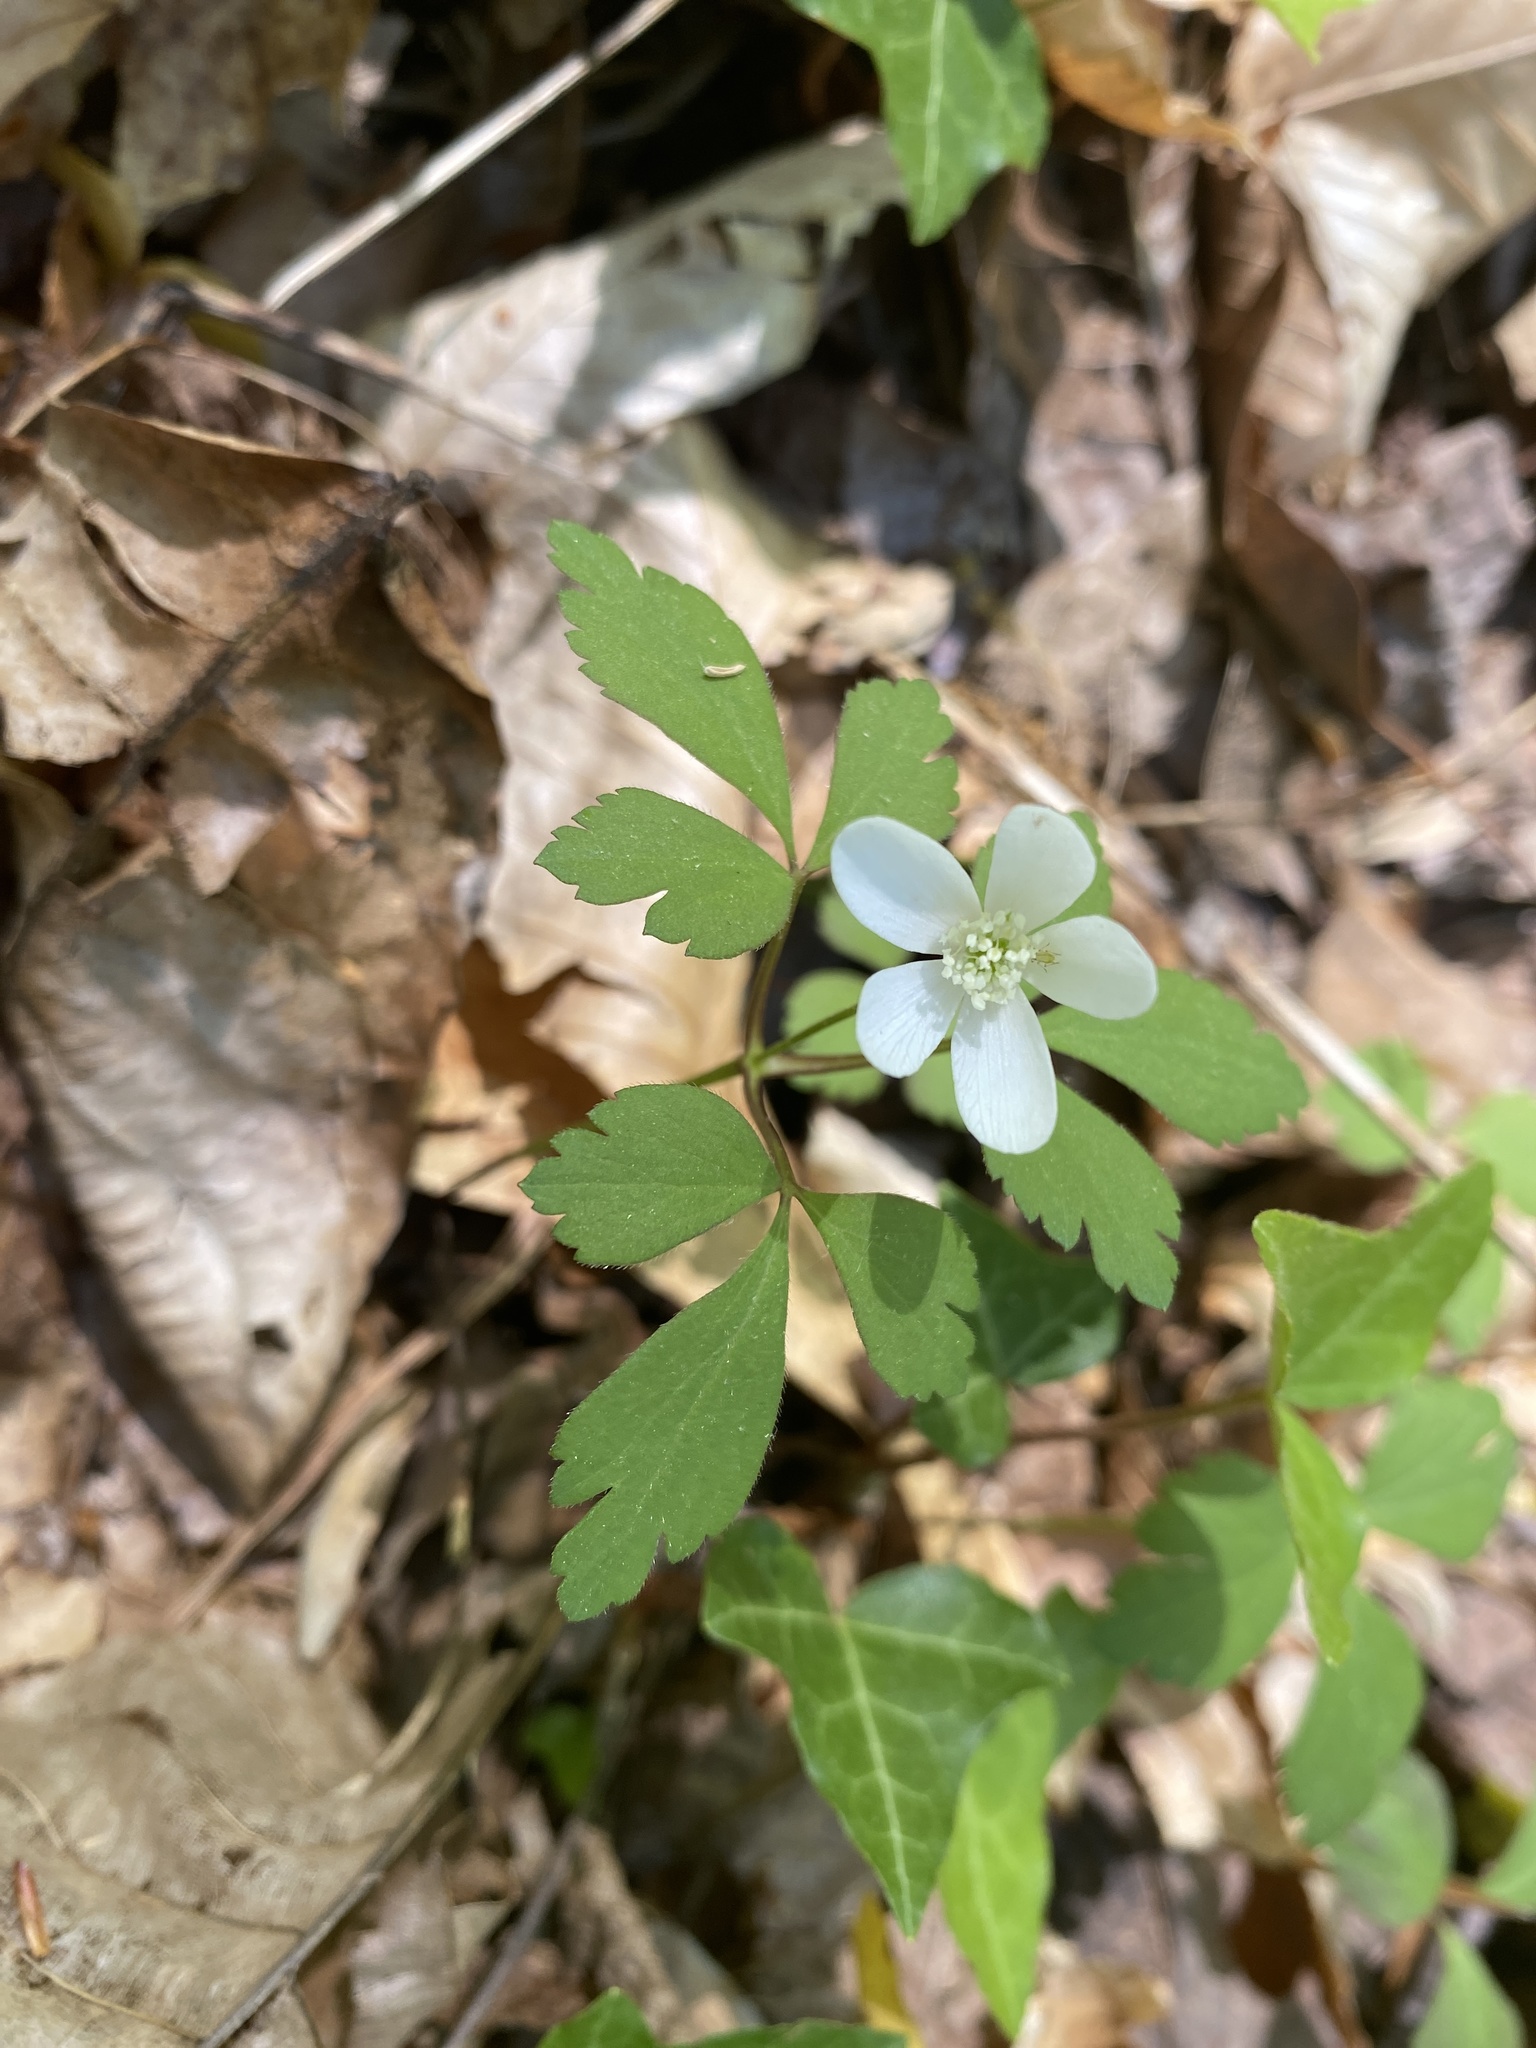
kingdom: Plantae
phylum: Tracheophyta
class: Magnoliopsida
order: Ranunculales
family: Ranunculaceae
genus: Anemone
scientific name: Anemone quinquefolia
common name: Wood anemone
